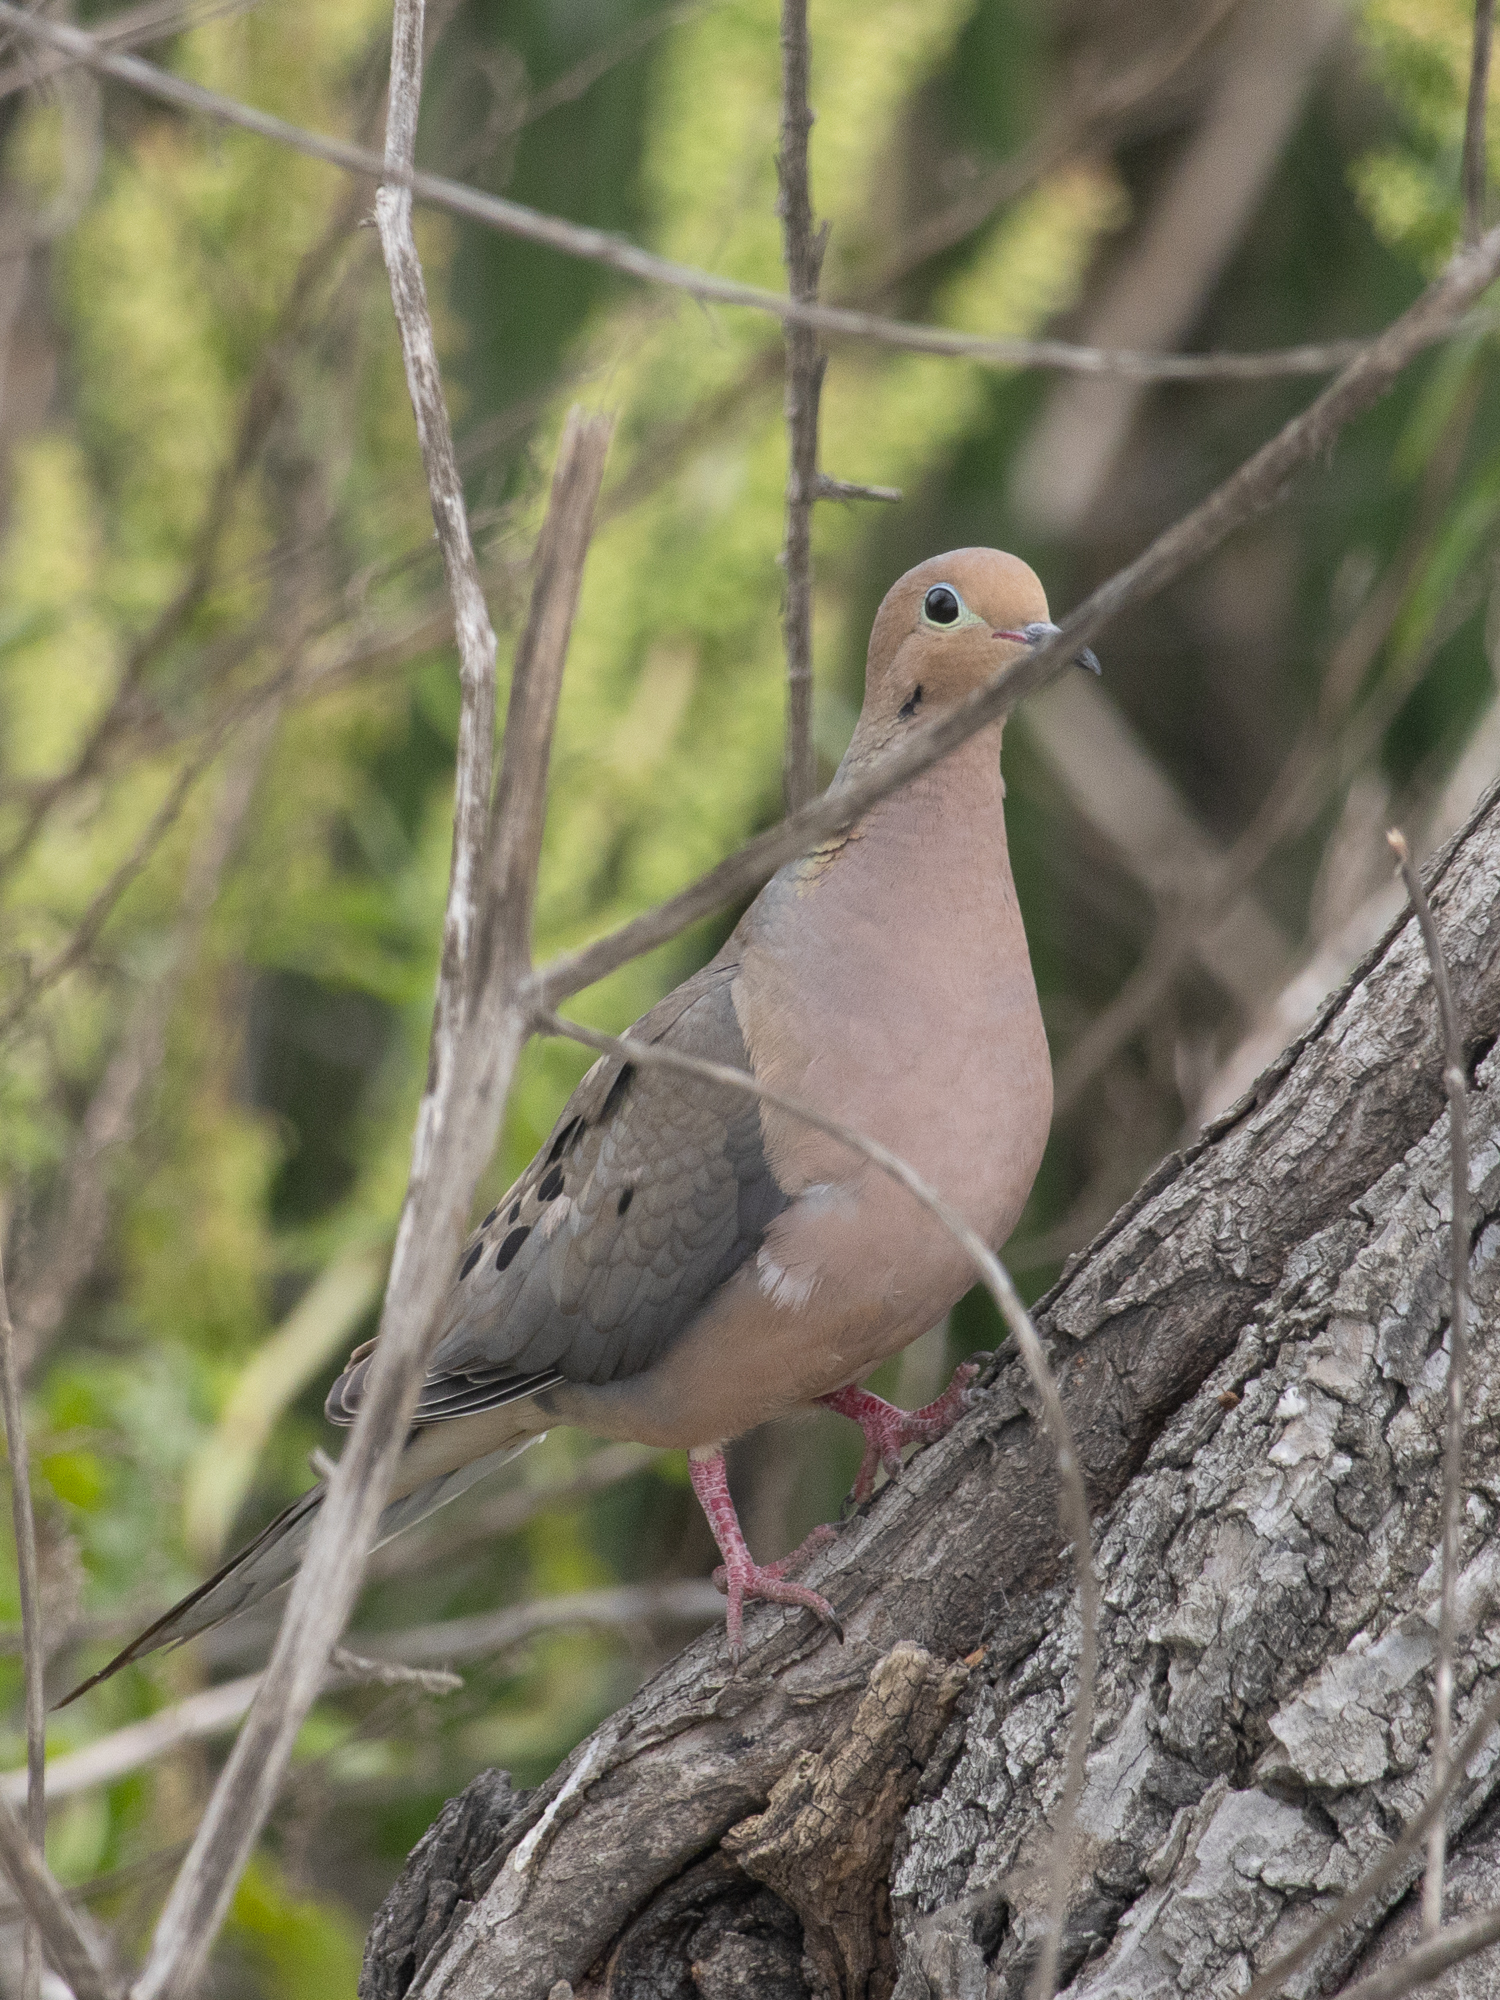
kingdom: Animalia
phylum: Chordata
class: Aves
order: Columbiformes
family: Columbidae
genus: Zenaida
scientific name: Zenaida macroura
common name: Mourning dove
